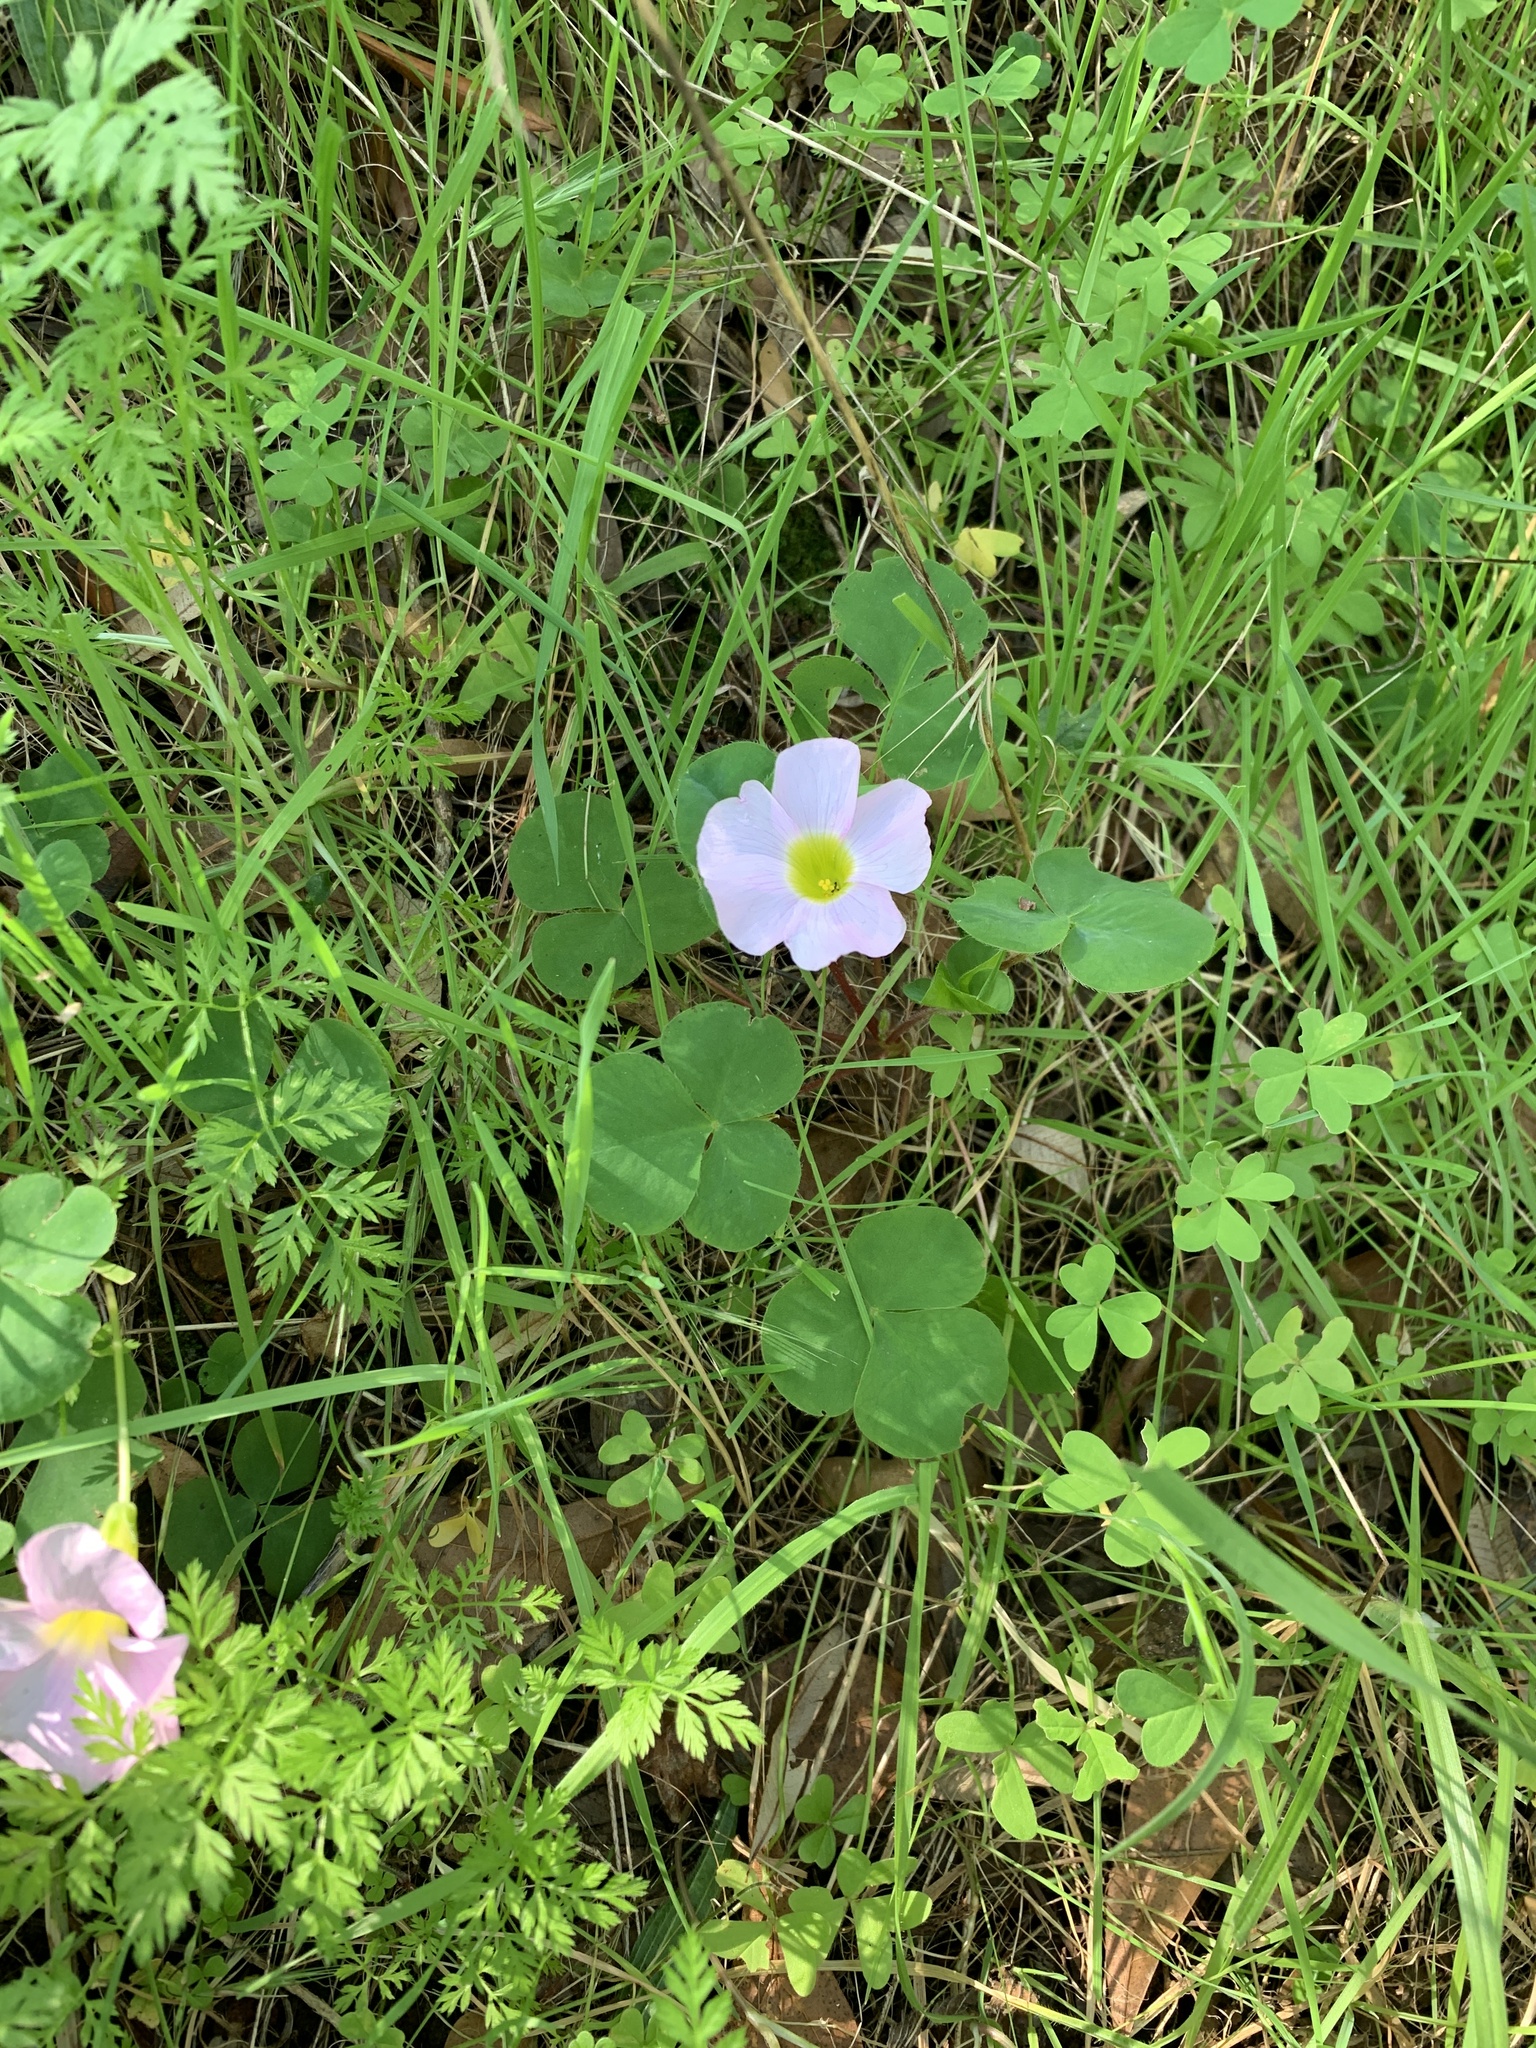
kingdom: Plantae
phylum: Tracheophyta
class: Magnoliopsida
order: Oxalidales
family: Oxalidaceae
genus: Oxalis
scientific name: Oxalis purpurea
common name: Purple woodsorrel
